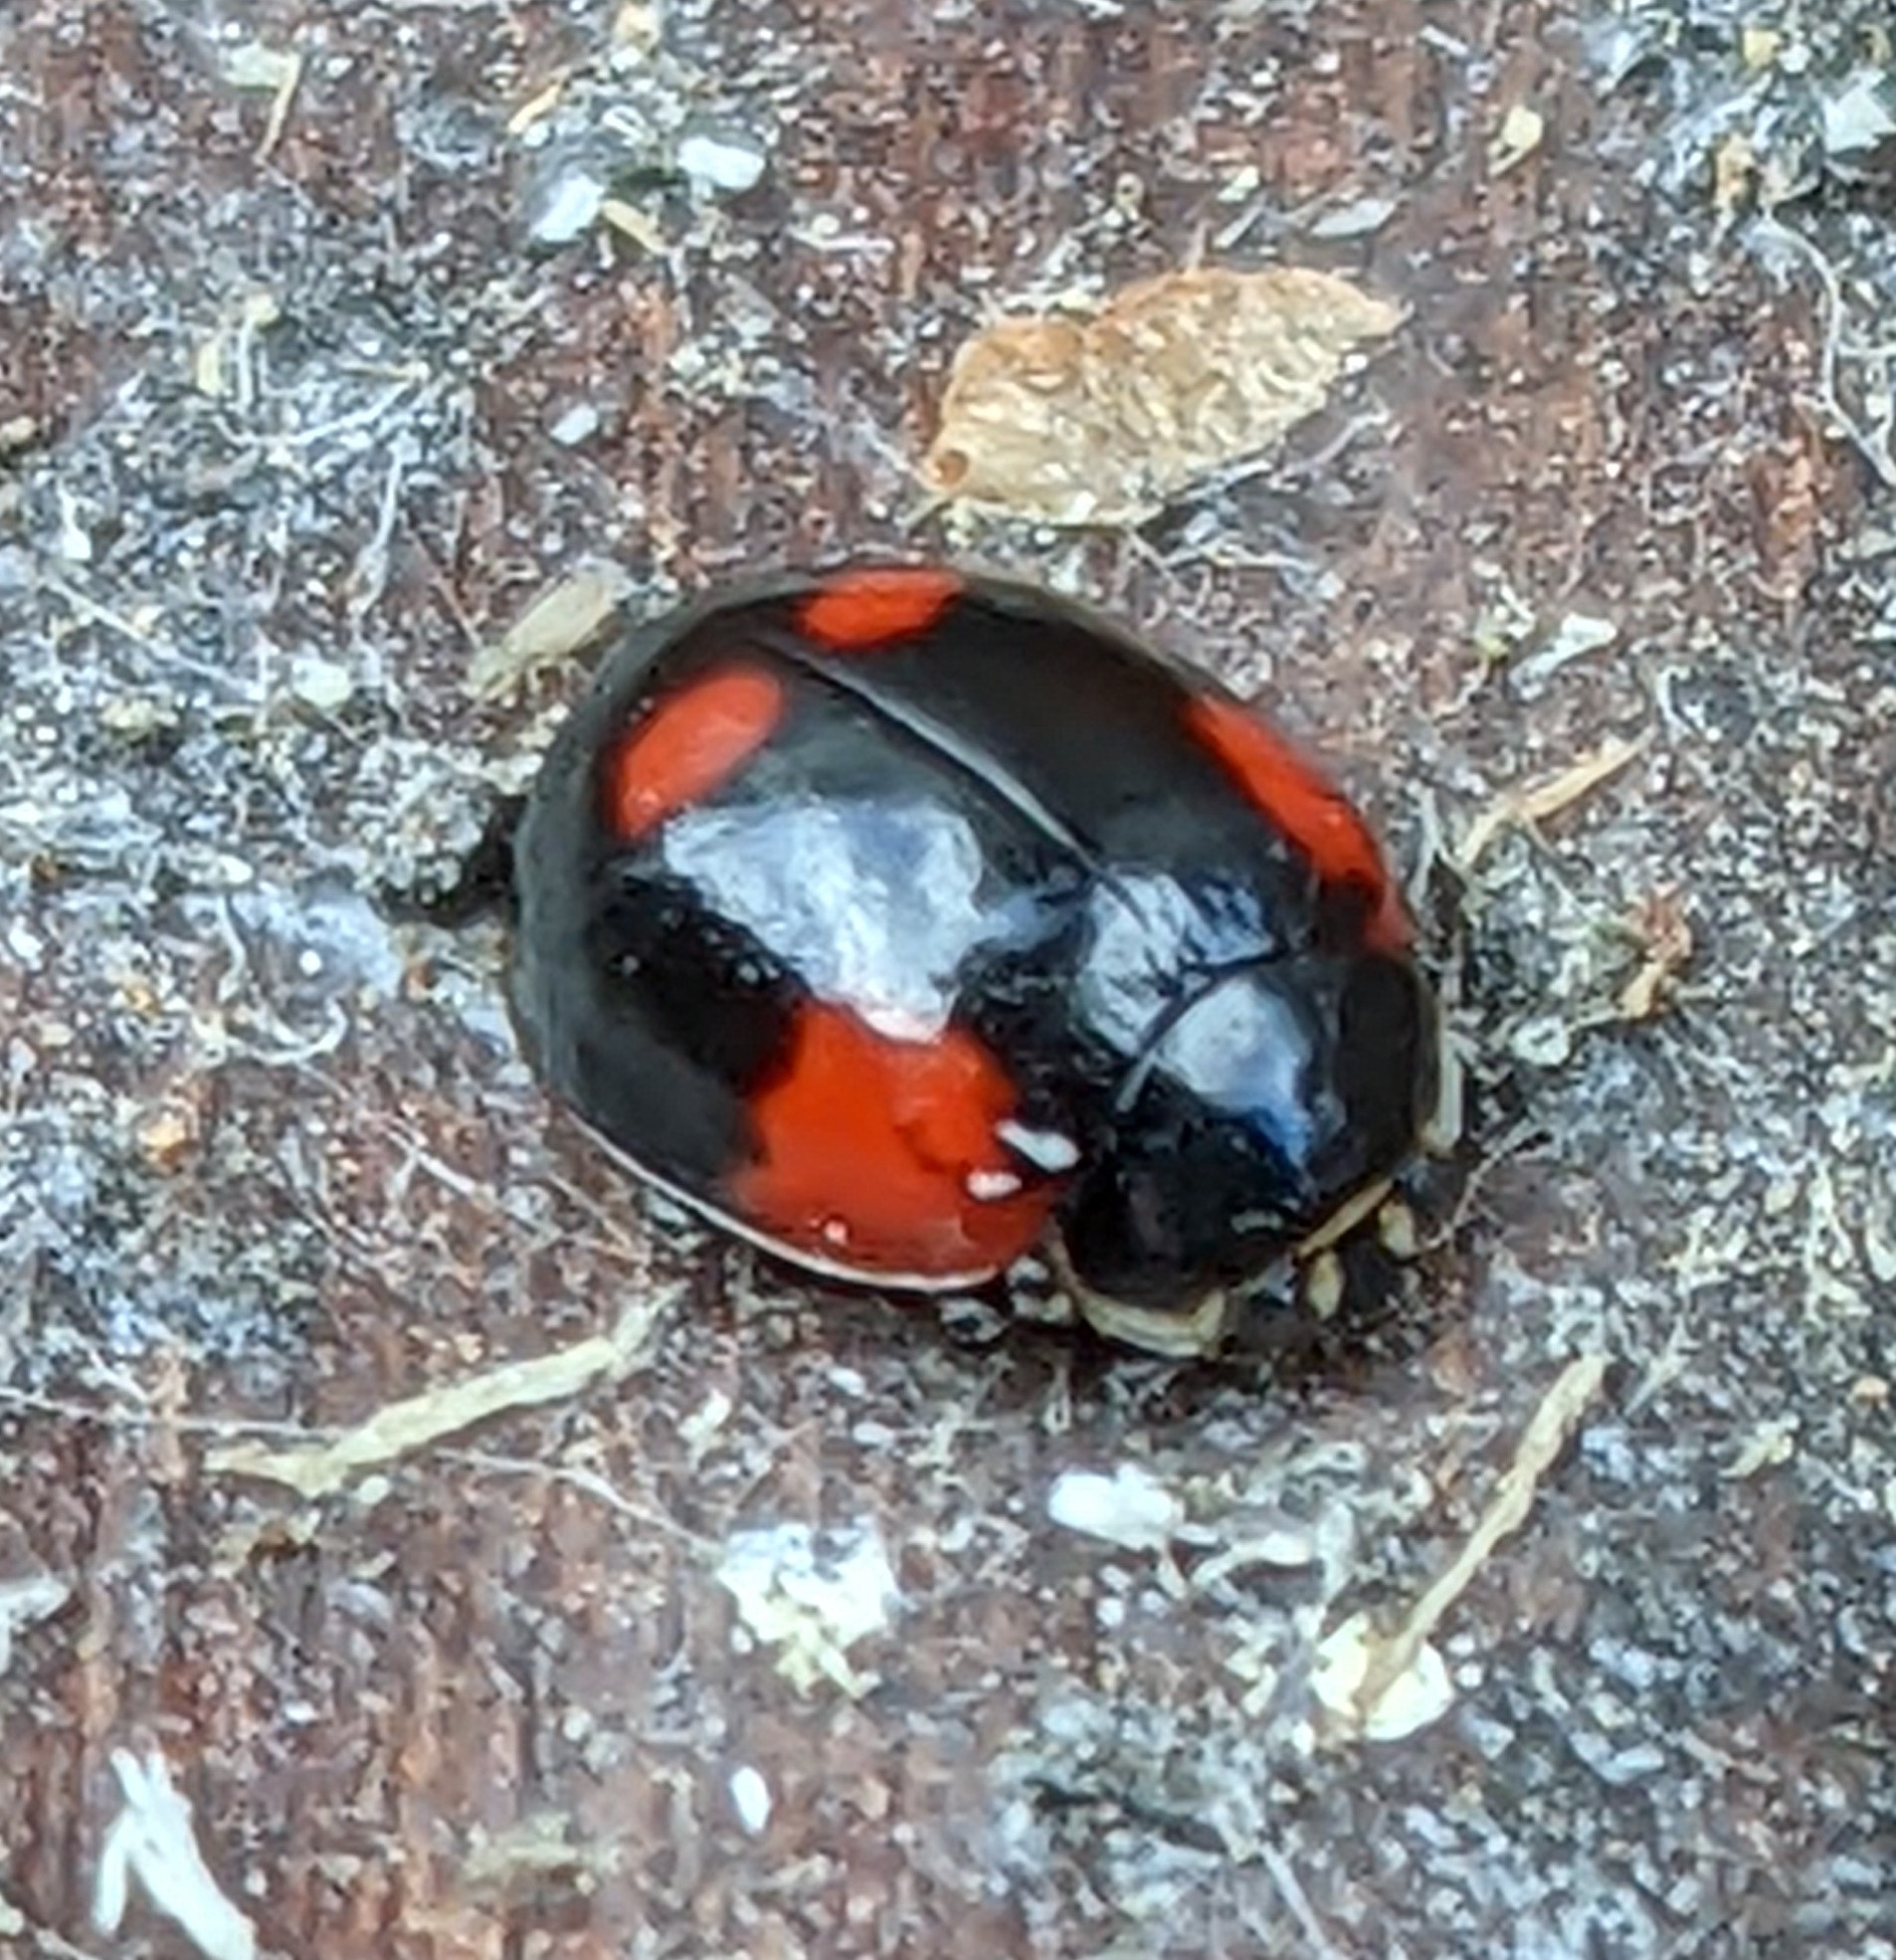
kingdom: Animalia
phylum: Arthropoda
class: Insecta
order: Coleoptera
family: Coccinellidae
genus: Adalia
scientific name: Adalia bipunctata
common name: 2-spot ladybird
